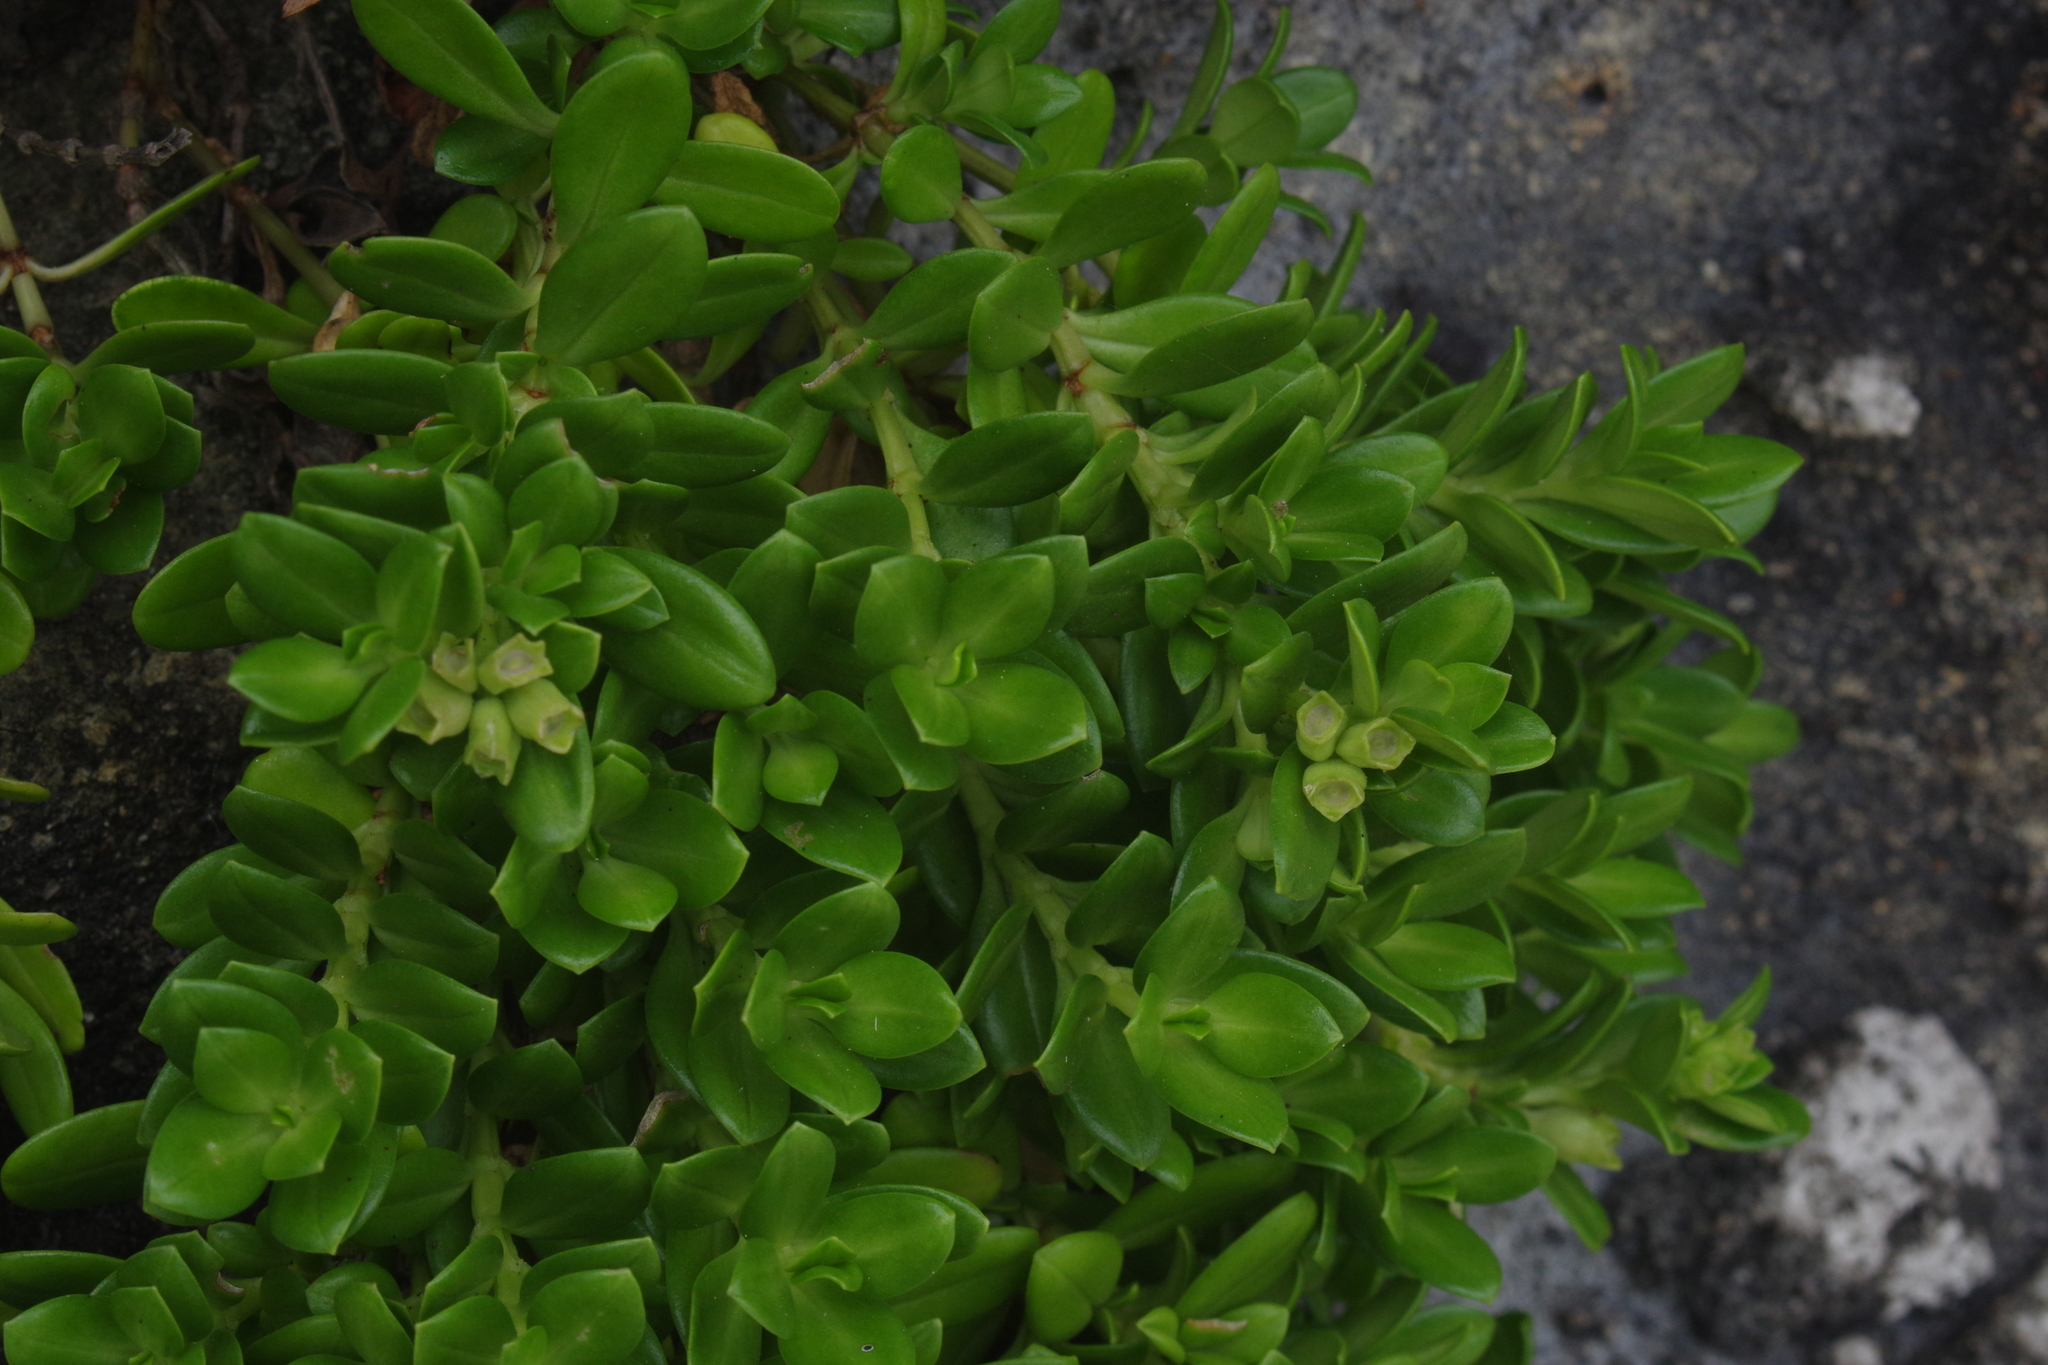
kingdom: Plantae
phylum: Tracheophyta
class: Magnoliopsida
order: Gentianales
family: Rubiaceae
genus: Leptopetalum
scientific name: Leptopetalum strigulosum
